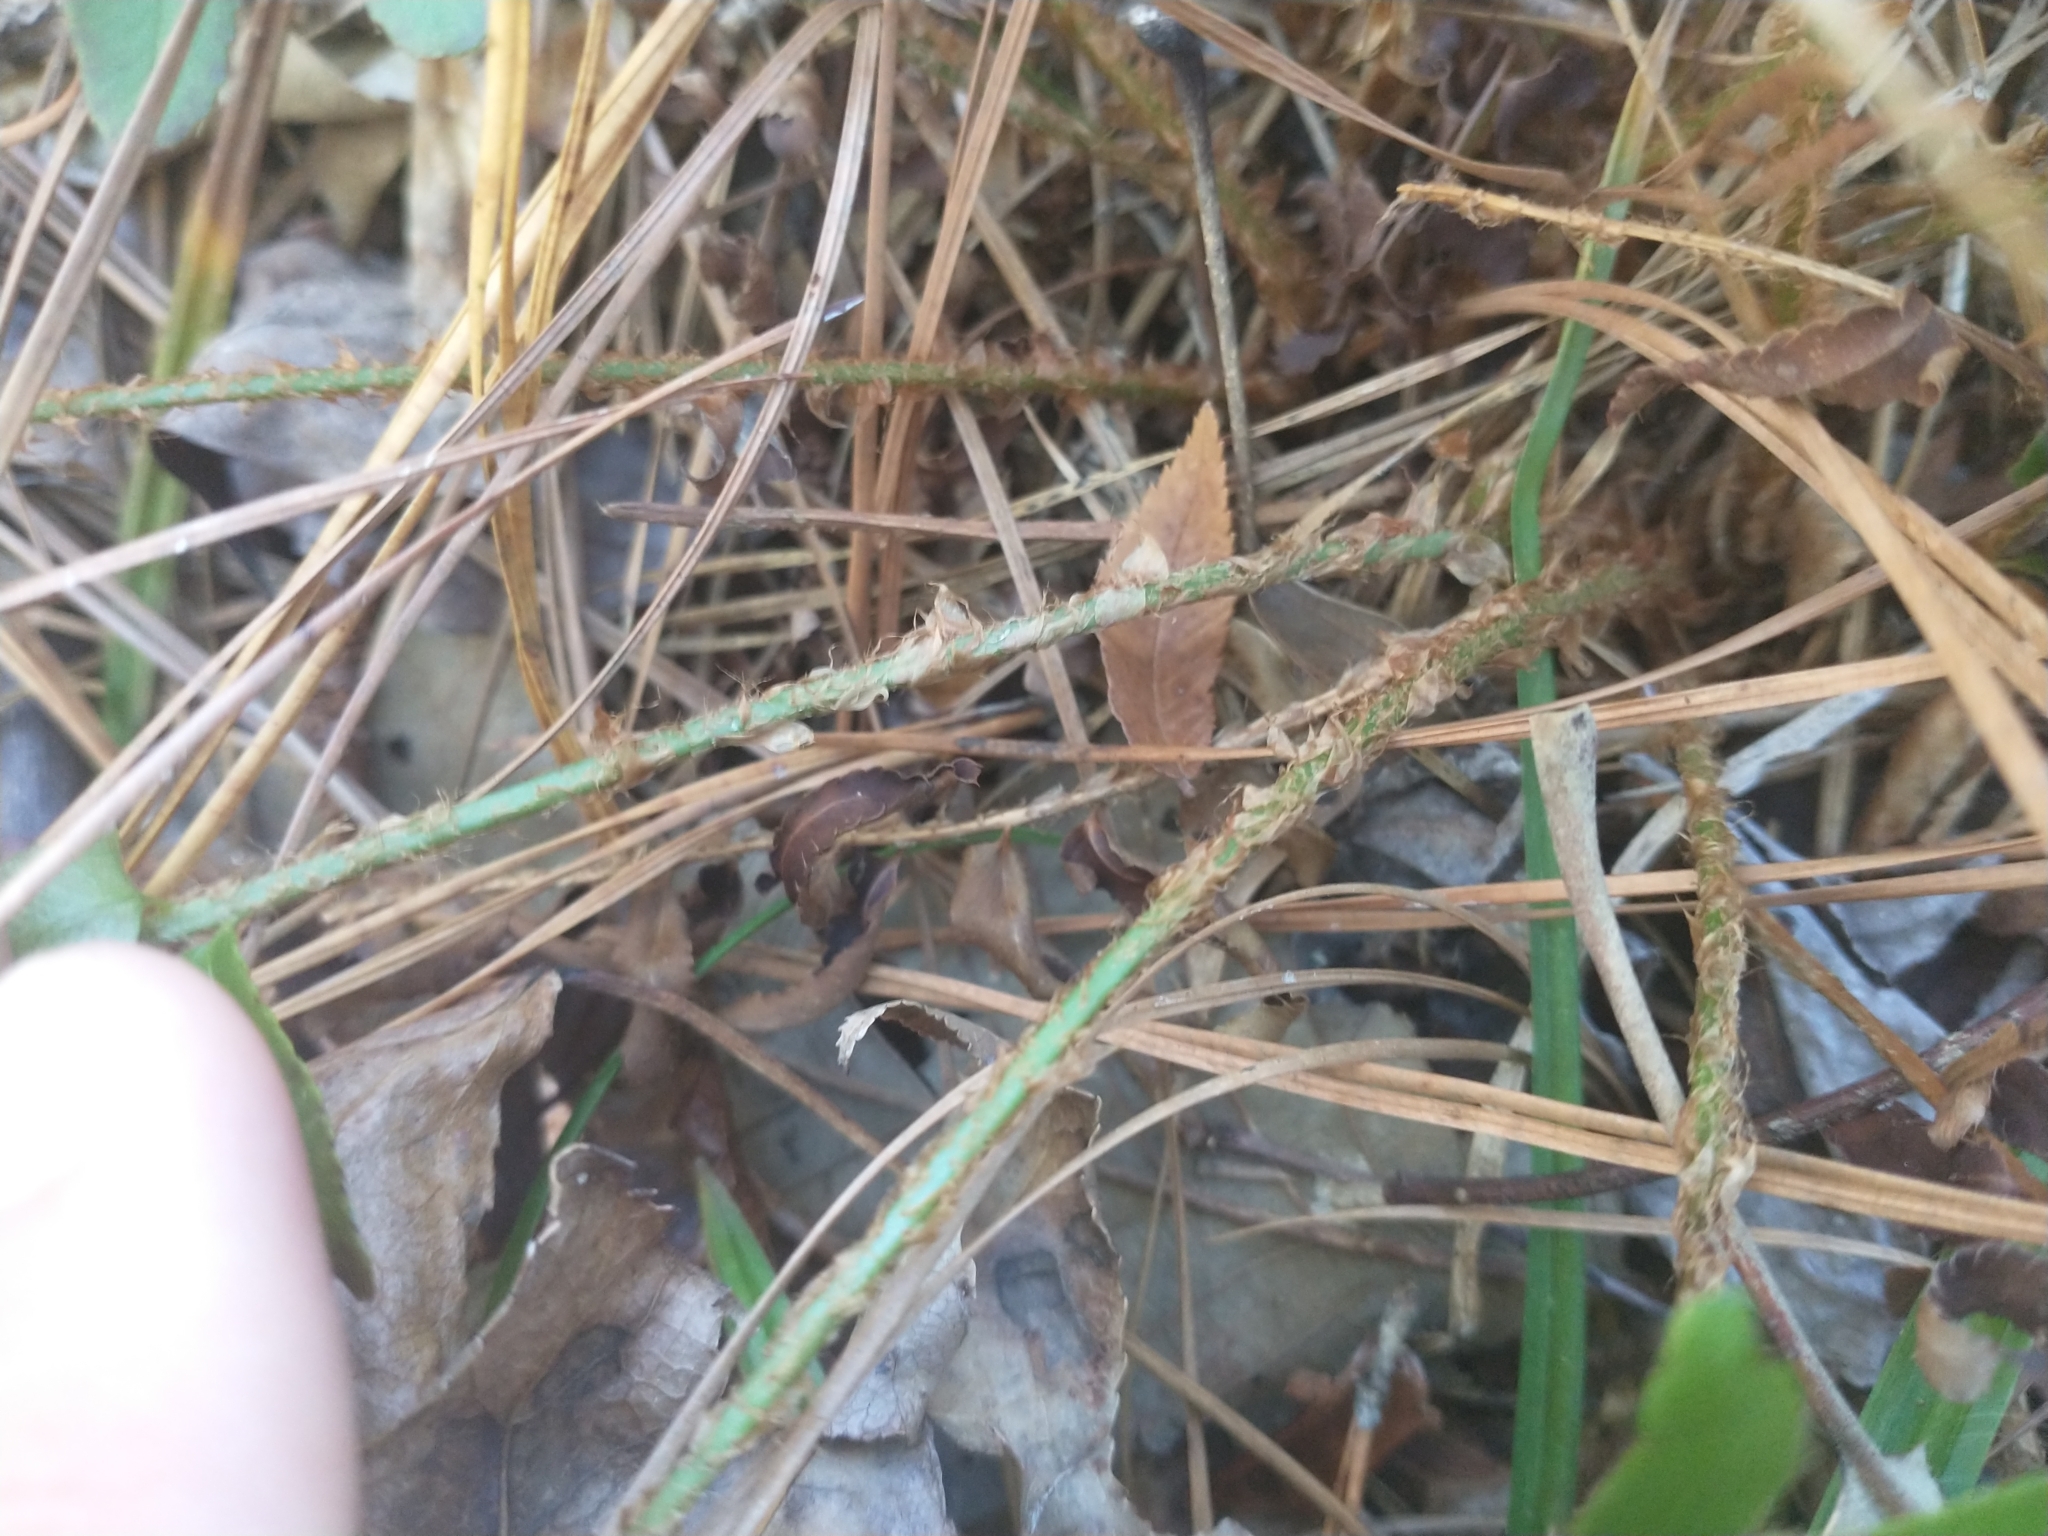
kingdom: Plantae
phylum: Tracheophyta
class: Polypodiopsida
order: Polypodiales
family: Dryopteridaceae
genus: Polystichum
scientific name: Polystichum acrostichoides
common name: Christmas fern
